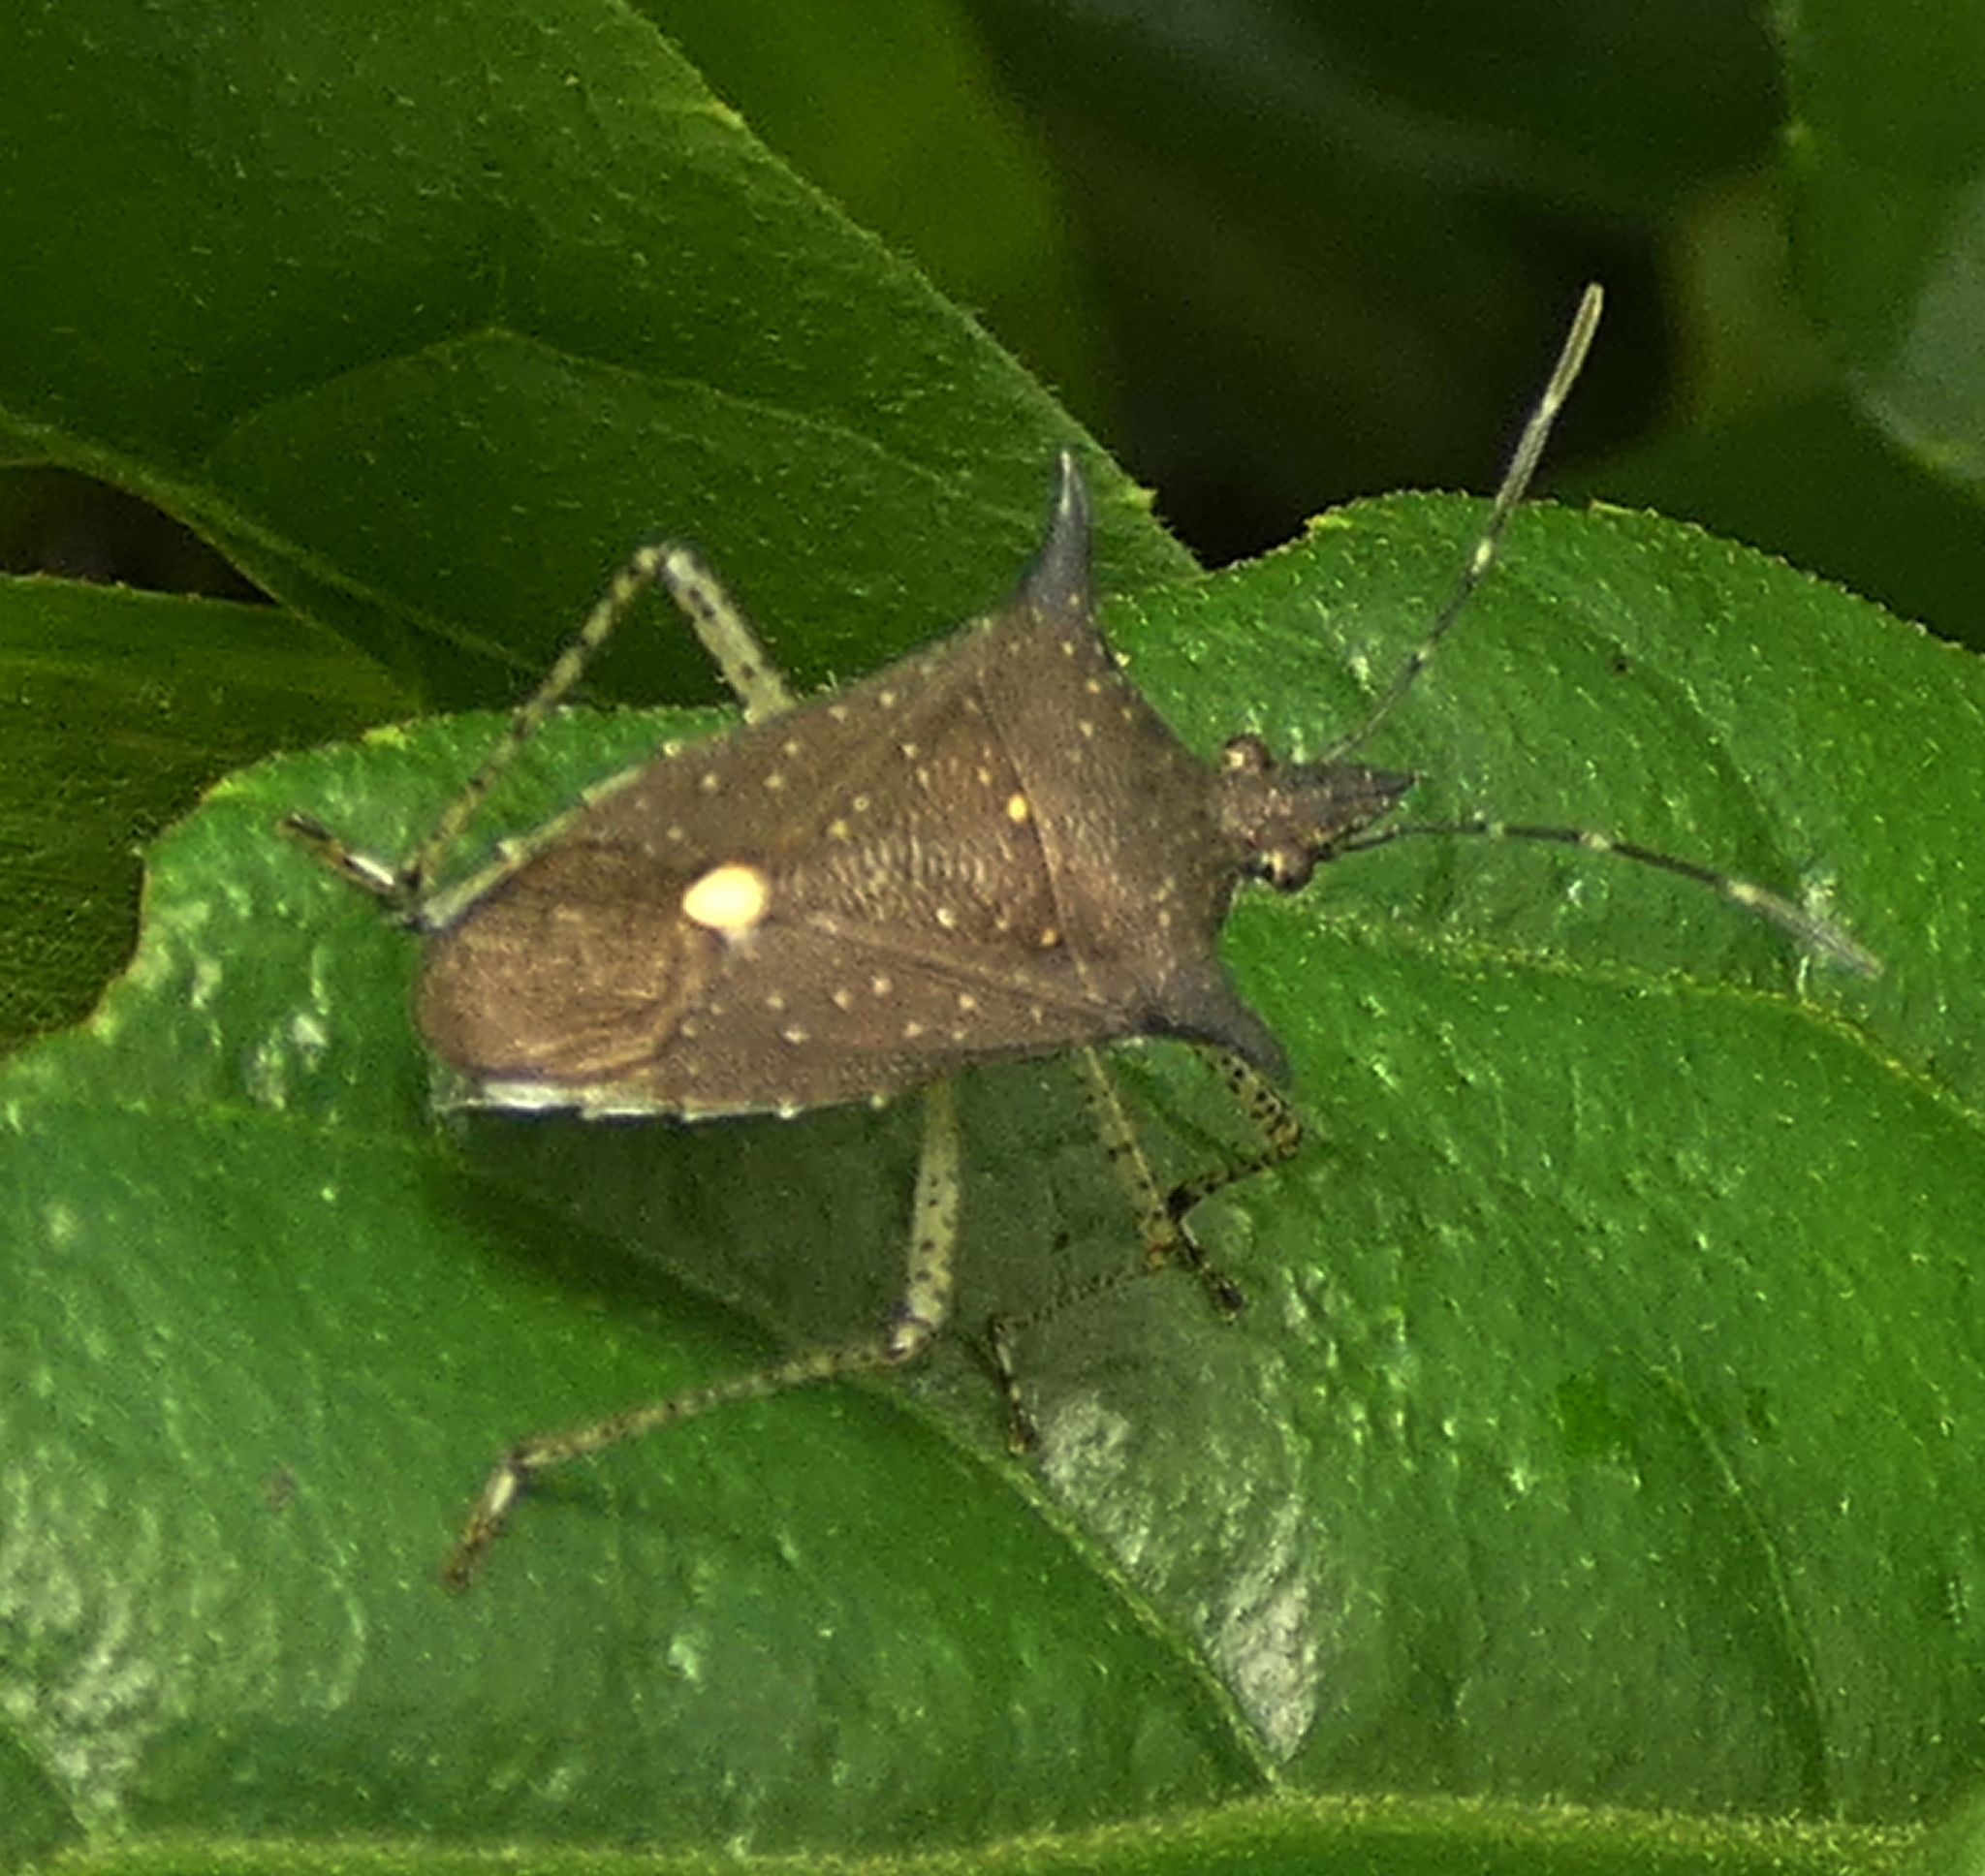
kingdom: Animalia
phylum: Arthropoda
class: Insecta
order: Hemiptera
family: Pentatomidae
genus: Proxys
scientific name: Proxys albopunctulatus
